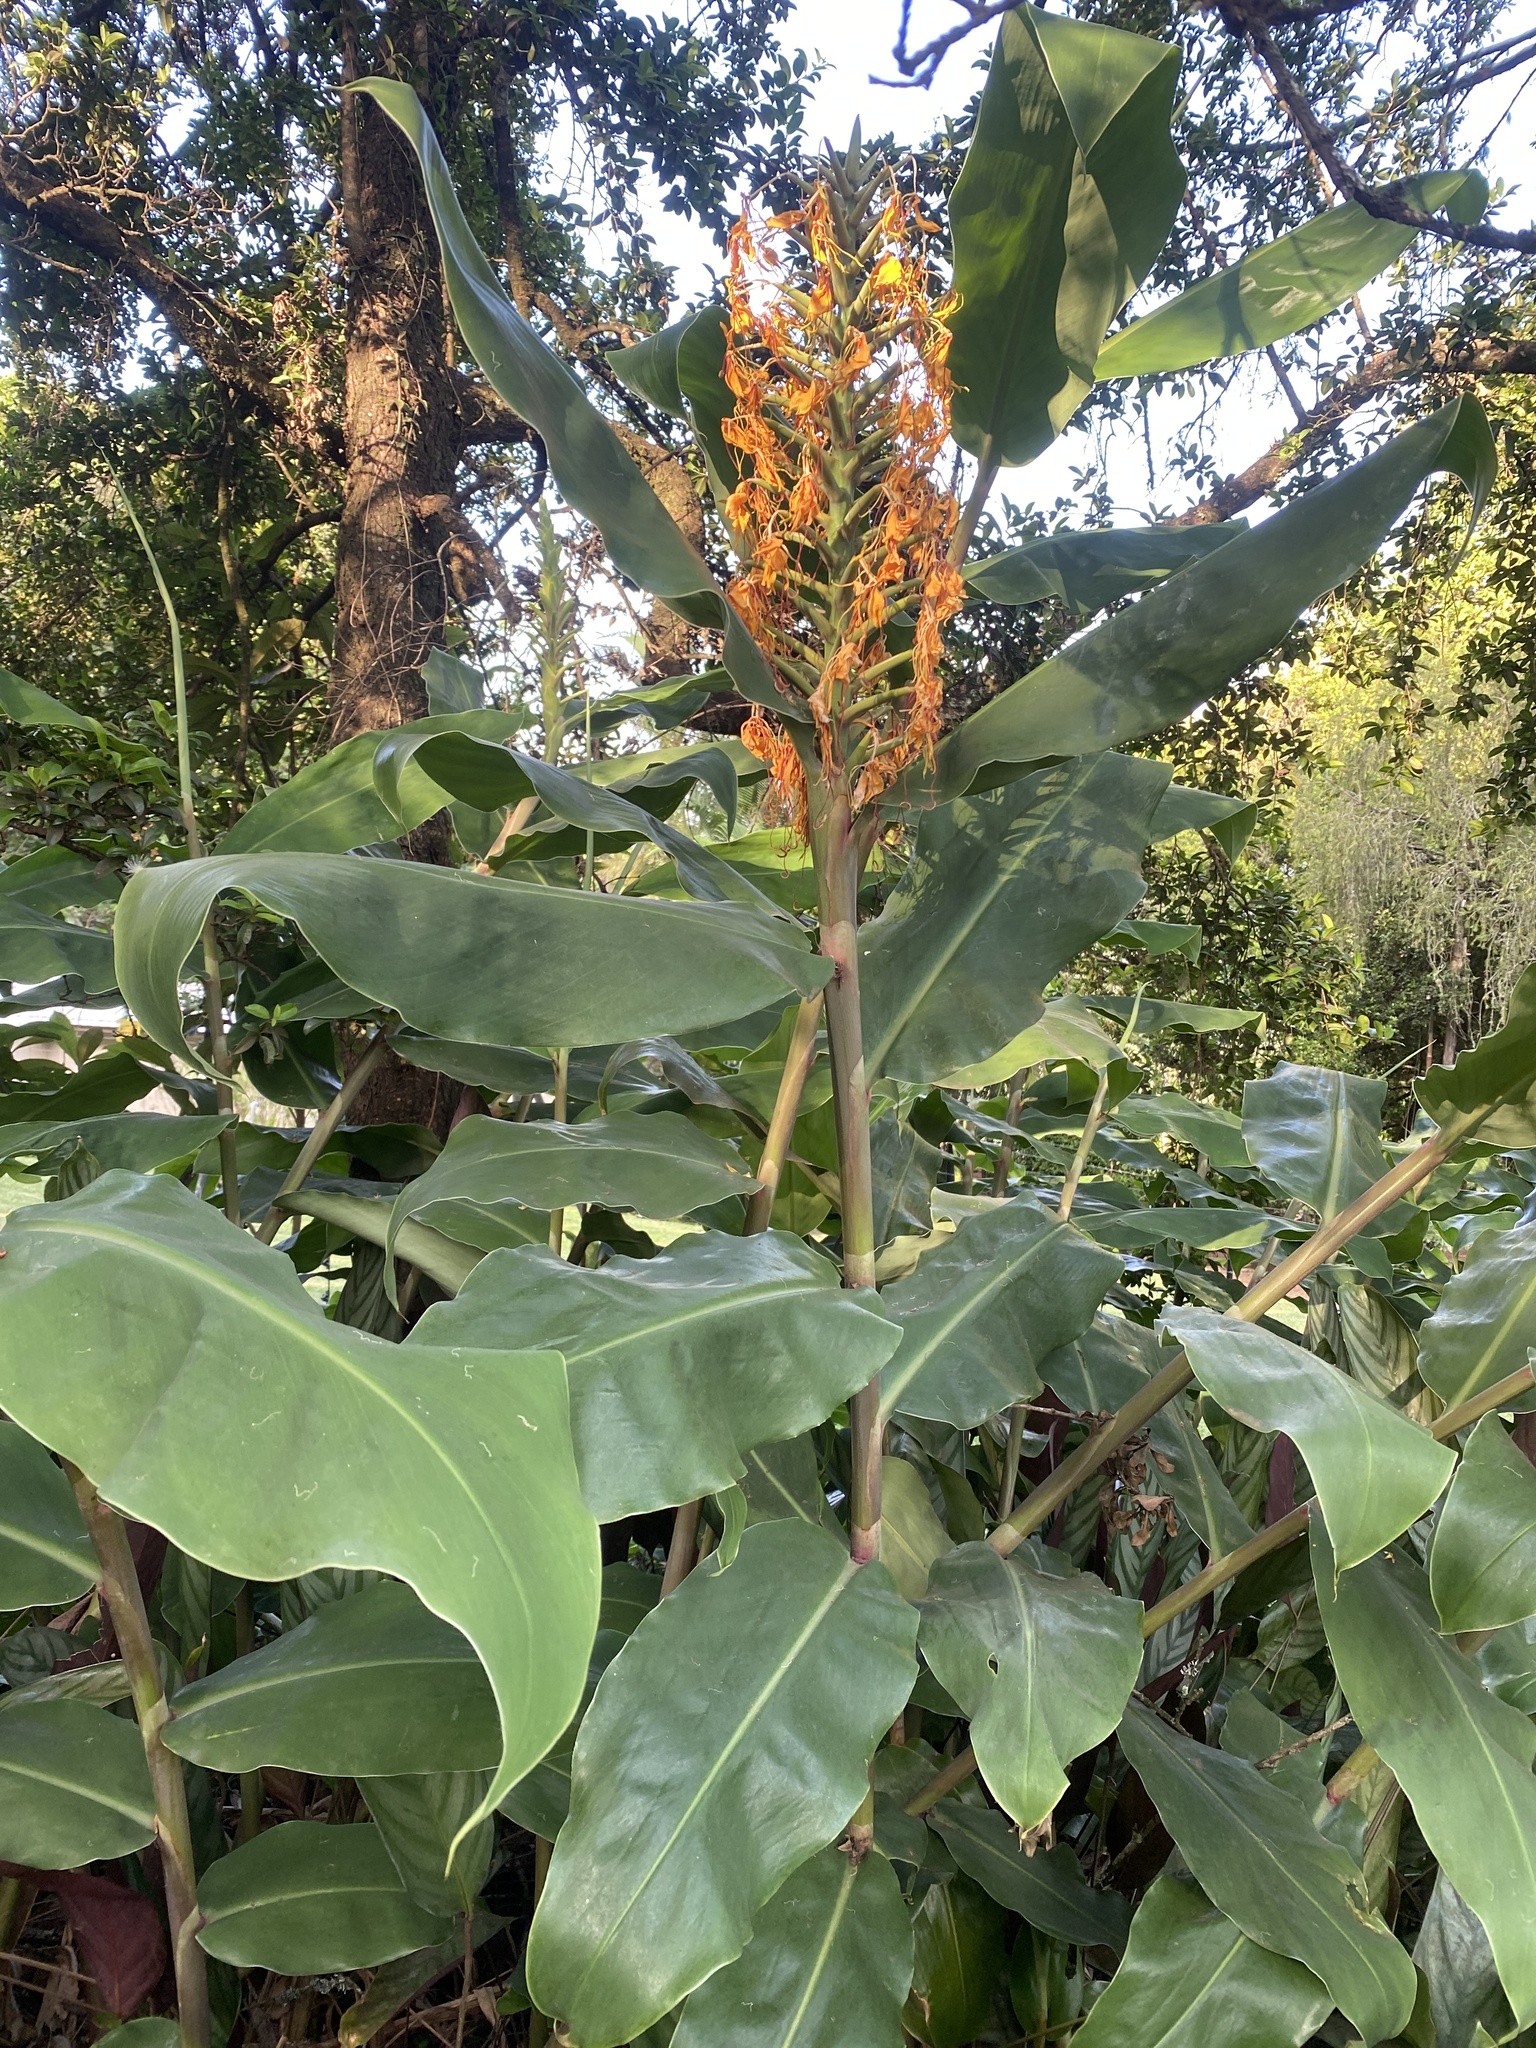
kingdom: Plantae
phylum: Tracheophyta
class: Liliopsida
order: Zingiberales
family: Zingiberaceae
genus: Hedychium
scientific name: Hedychium gardnerianum
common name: Himalayan ginger
